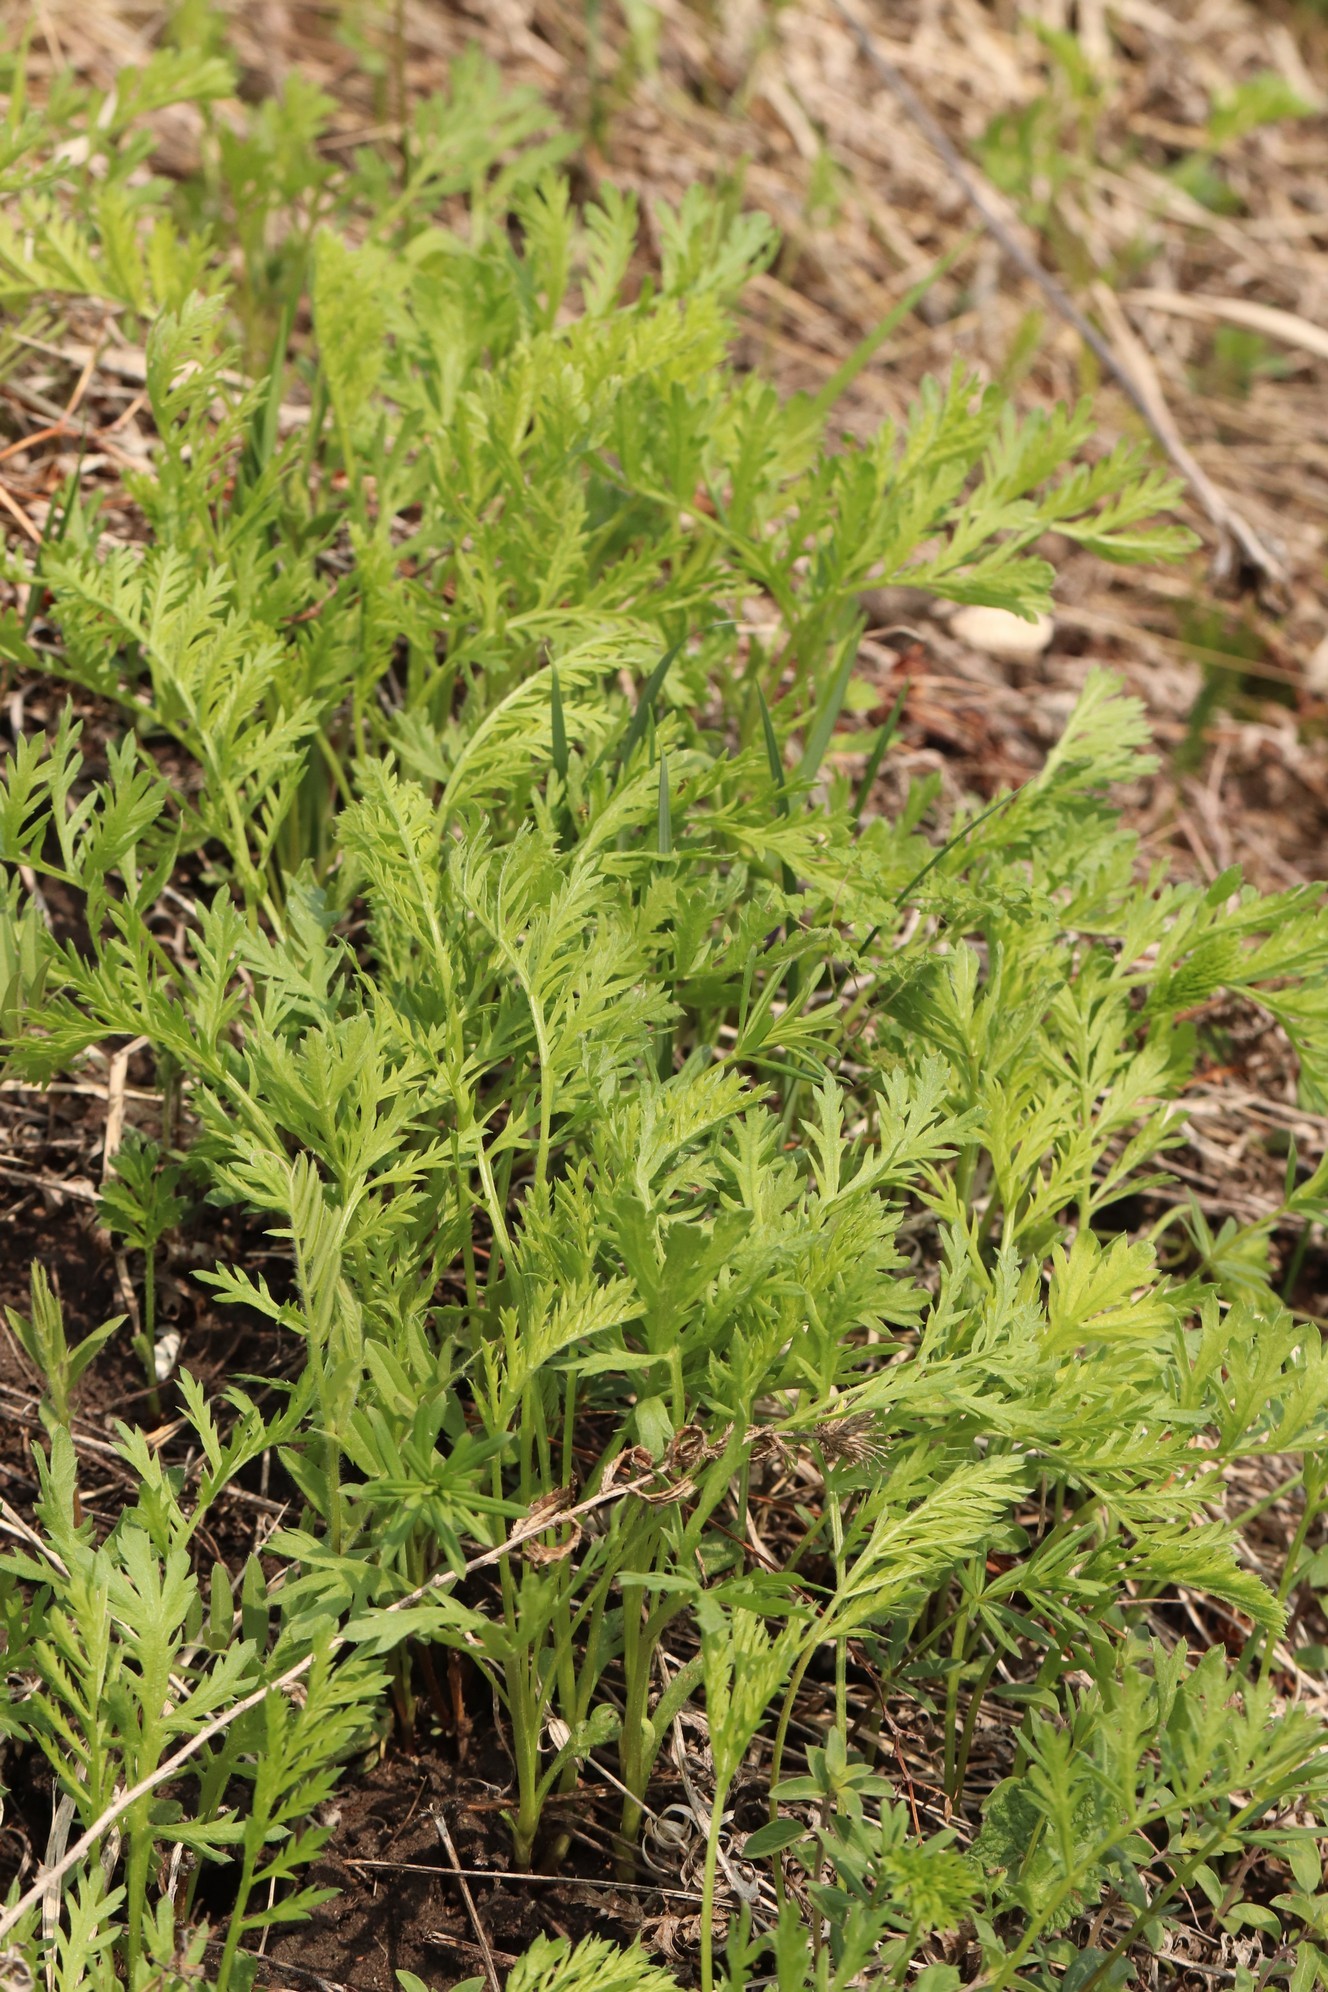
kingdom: Plantae
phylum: Tracheophyta
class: Magnoliopsida
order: Asterales
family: Asteraceae
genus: Tanacetum
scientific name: Tanacetum vulgare
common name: Common tansy
